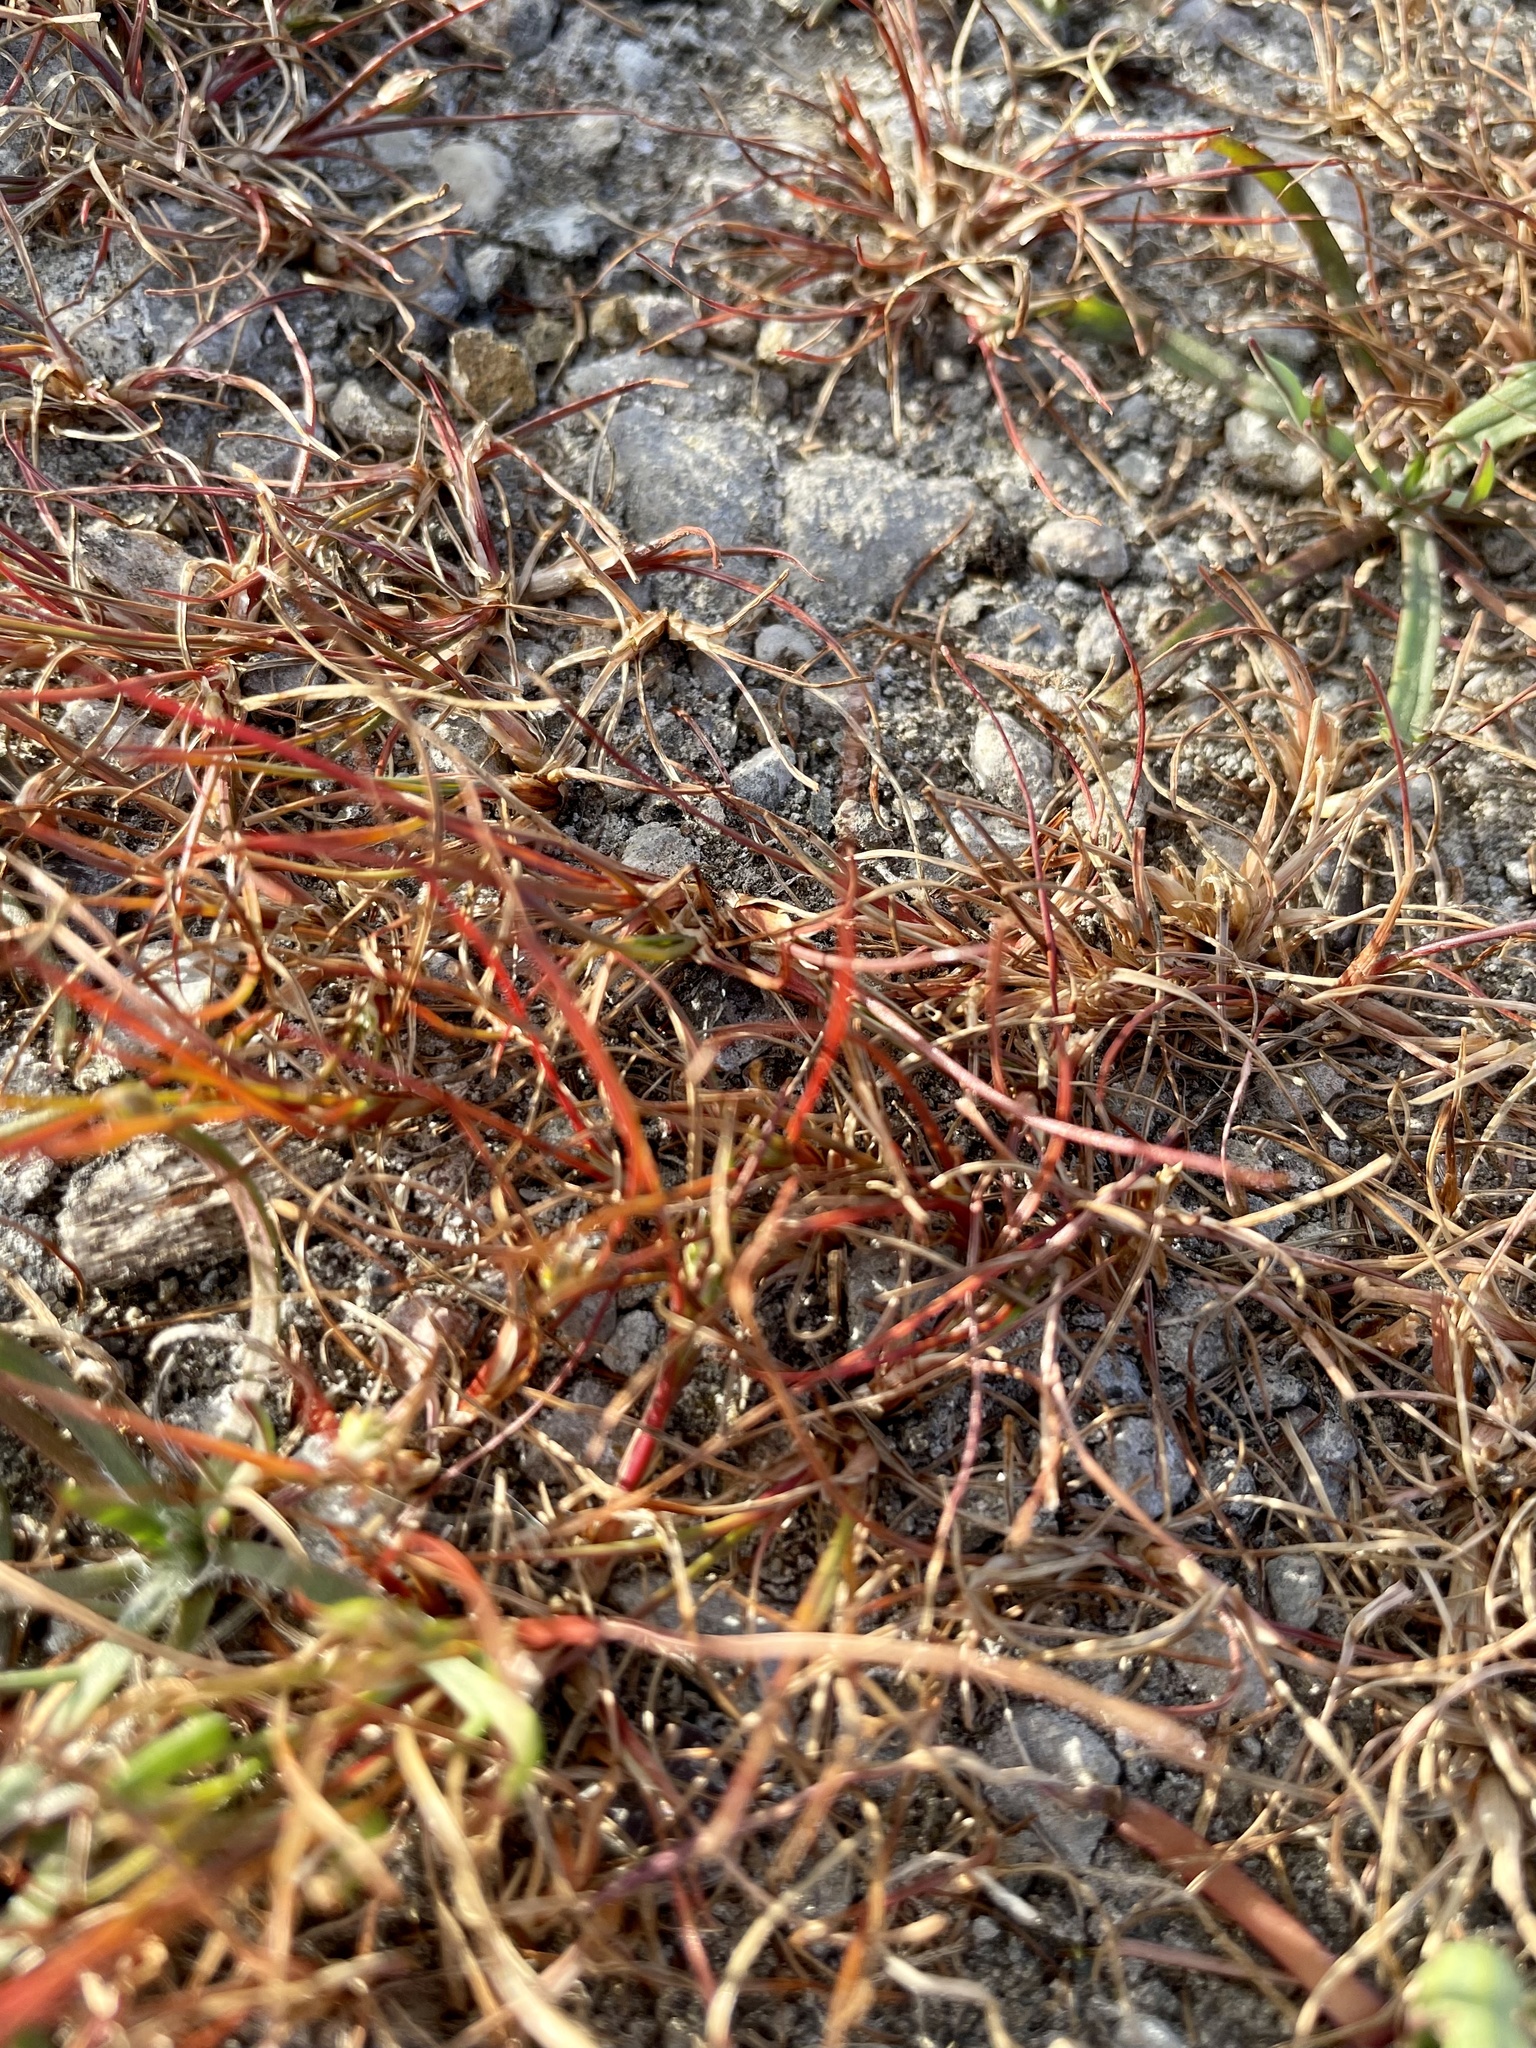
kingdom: Plantae
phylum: Tracheophyta
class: Liliopsida
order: Poales
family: Juncaceae
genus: Juncus
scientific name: Juncus bufonius
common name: Toad rush
